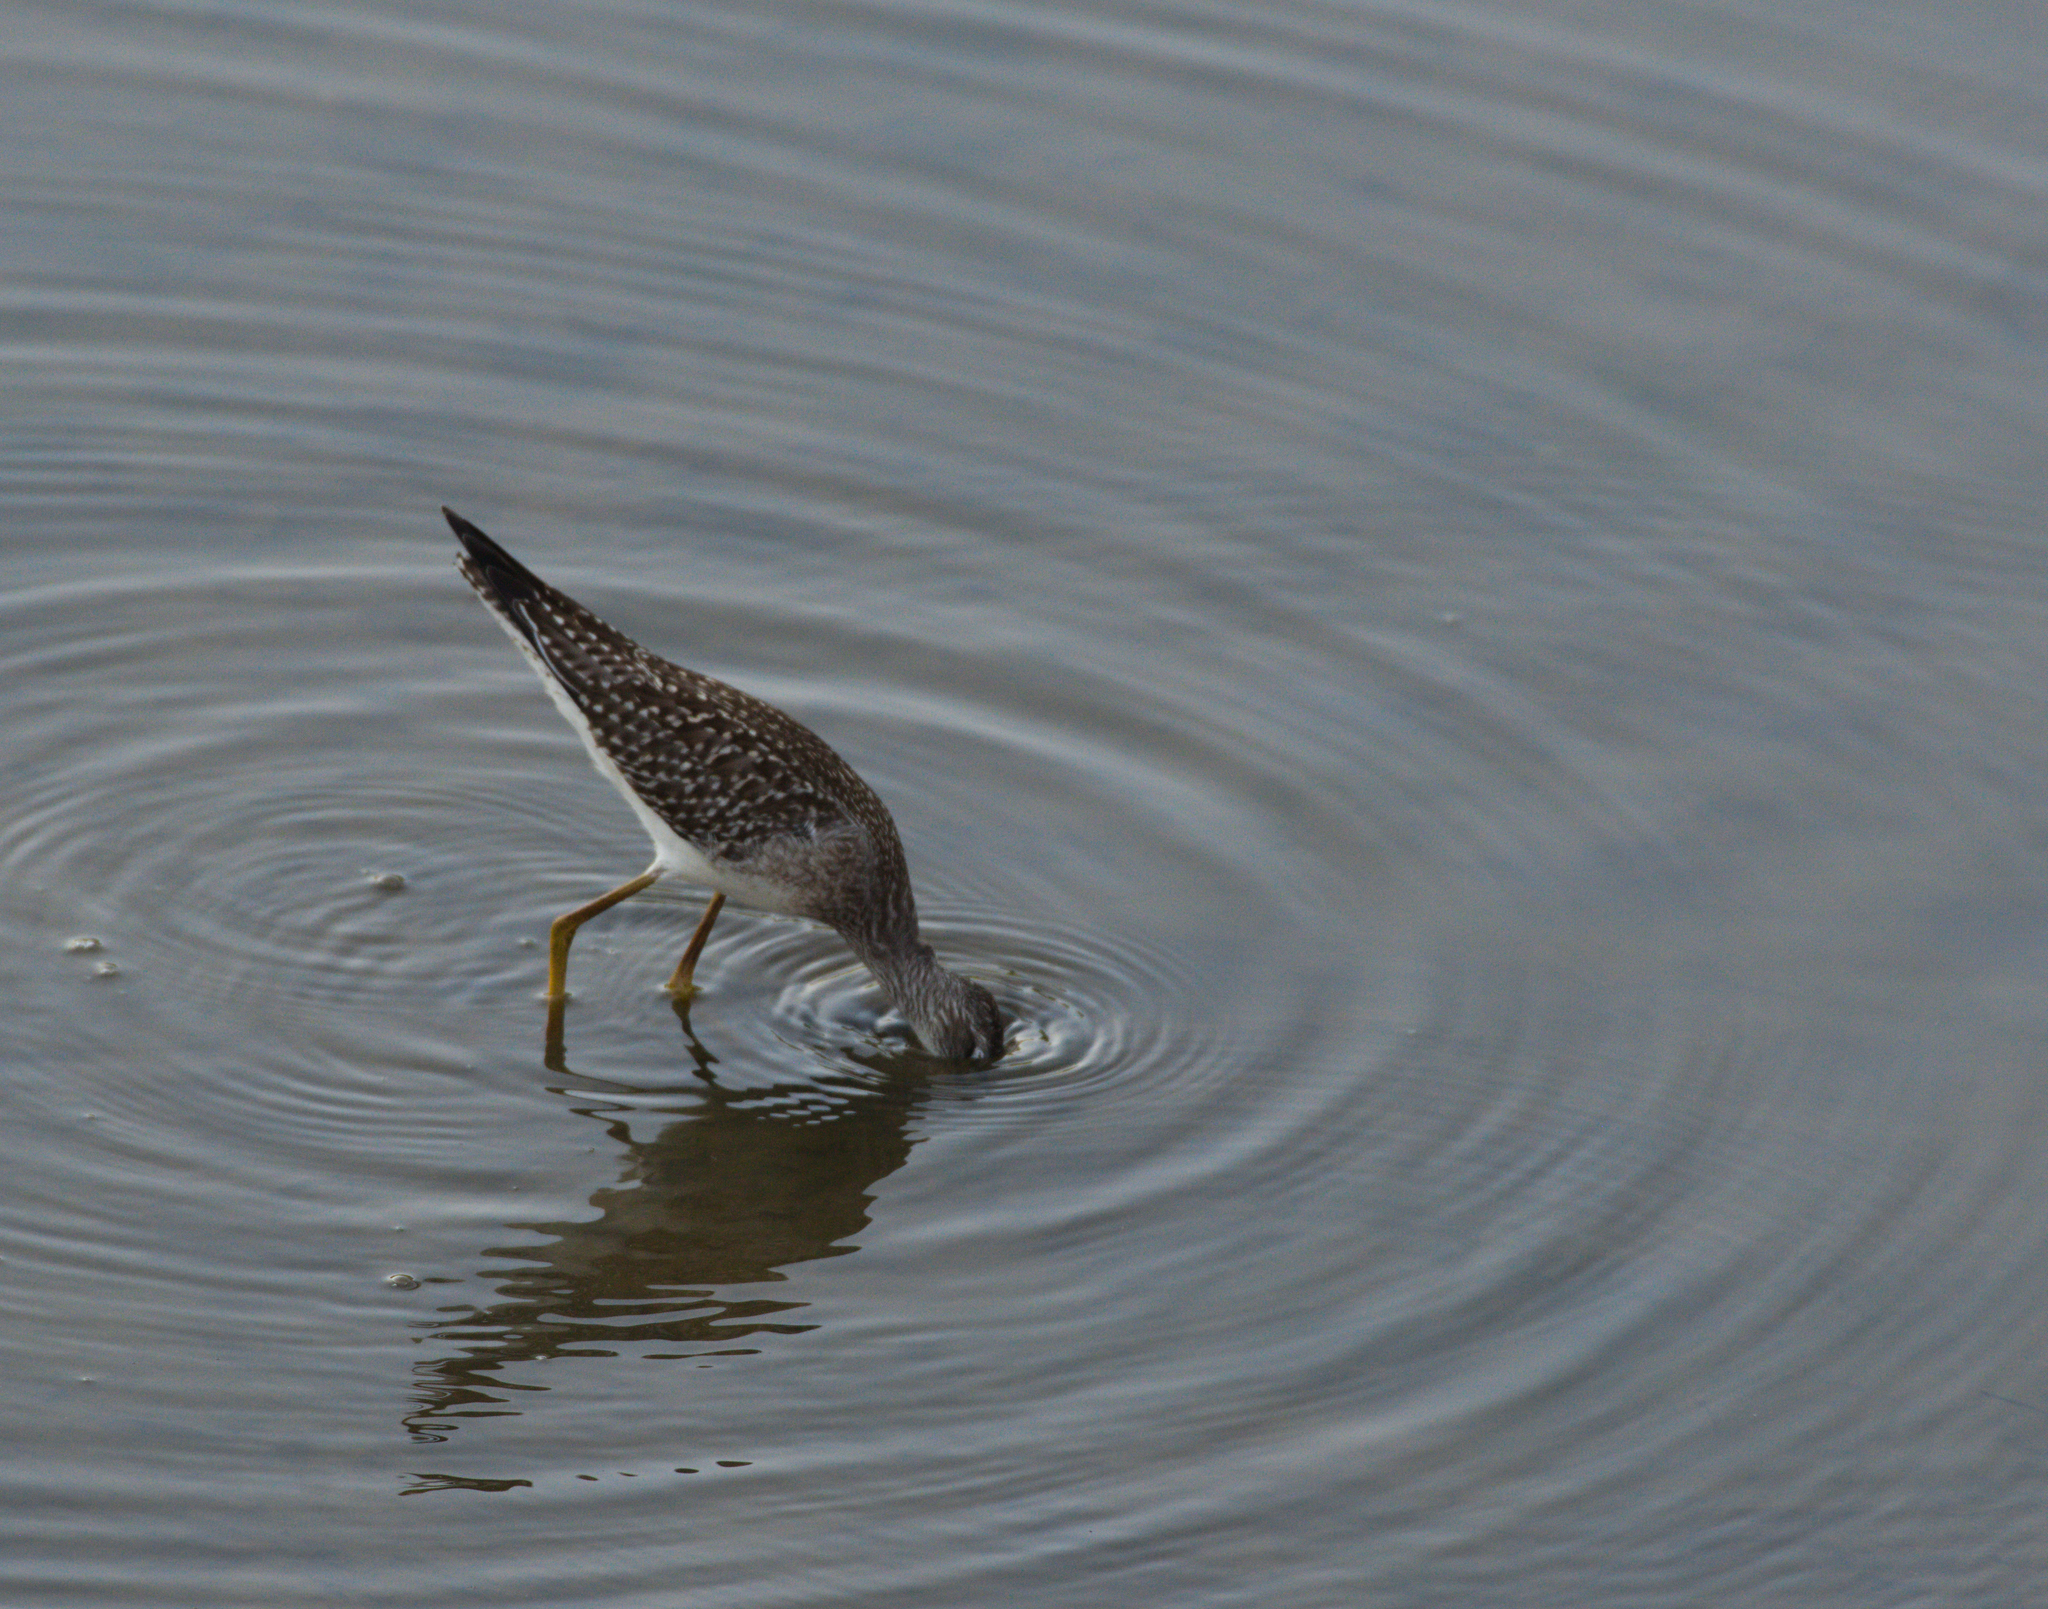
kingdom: Animalia
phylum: Chordata
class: Aves
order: Charadriiformes
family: Scolopacidae
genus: Tringa
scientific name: Tringa flavipes
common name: Lesser yellowlegs
